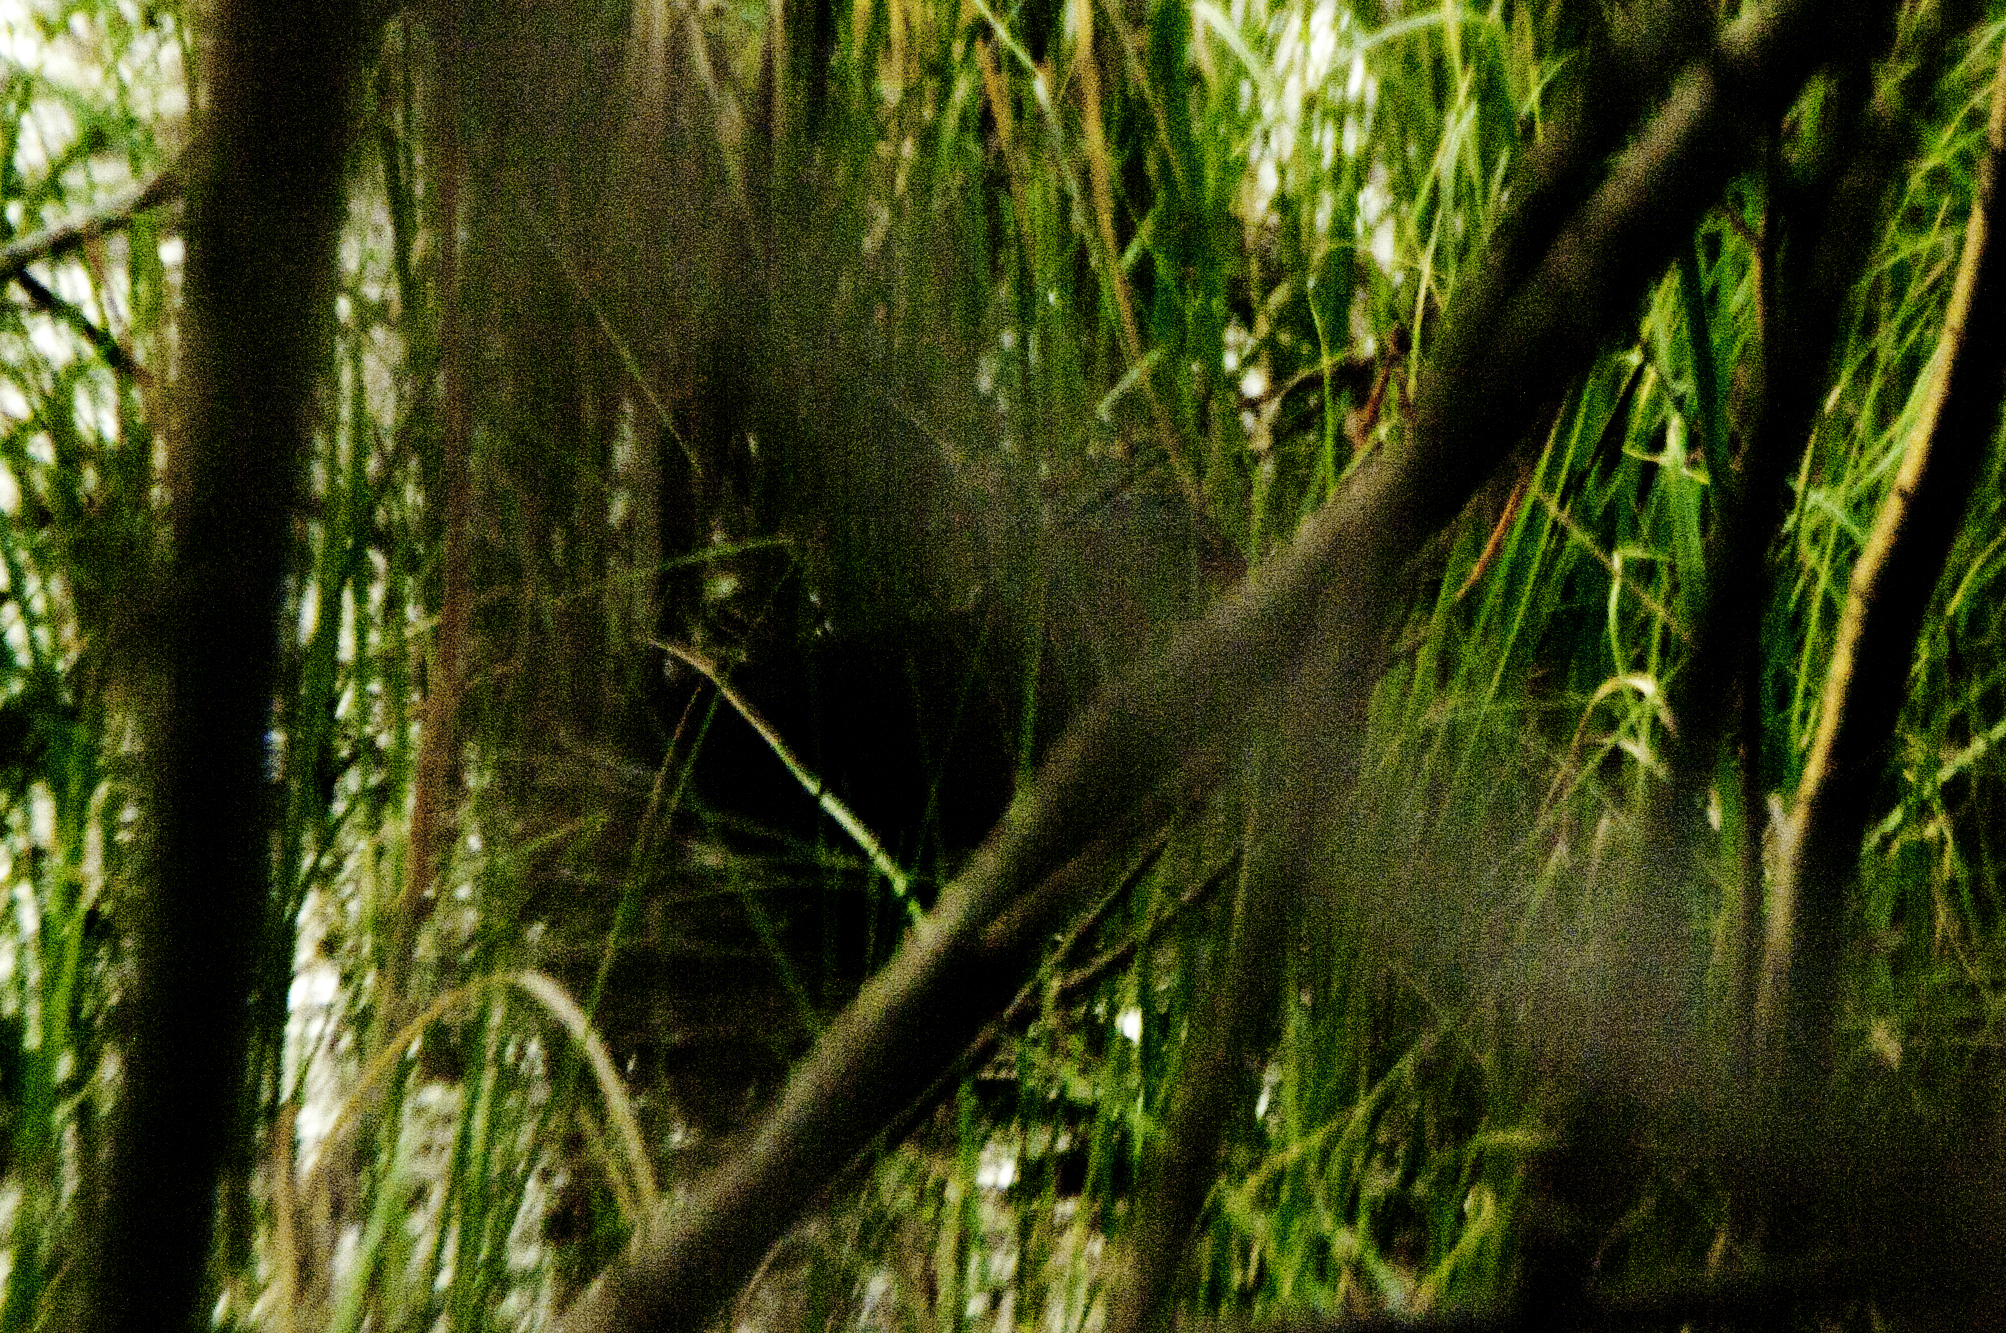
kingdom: Animalia
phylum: Chordata
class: Aves
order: Gruiformes
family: Rallidae
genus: Rallus
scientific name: Rallus limicola
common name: Virginia rail
